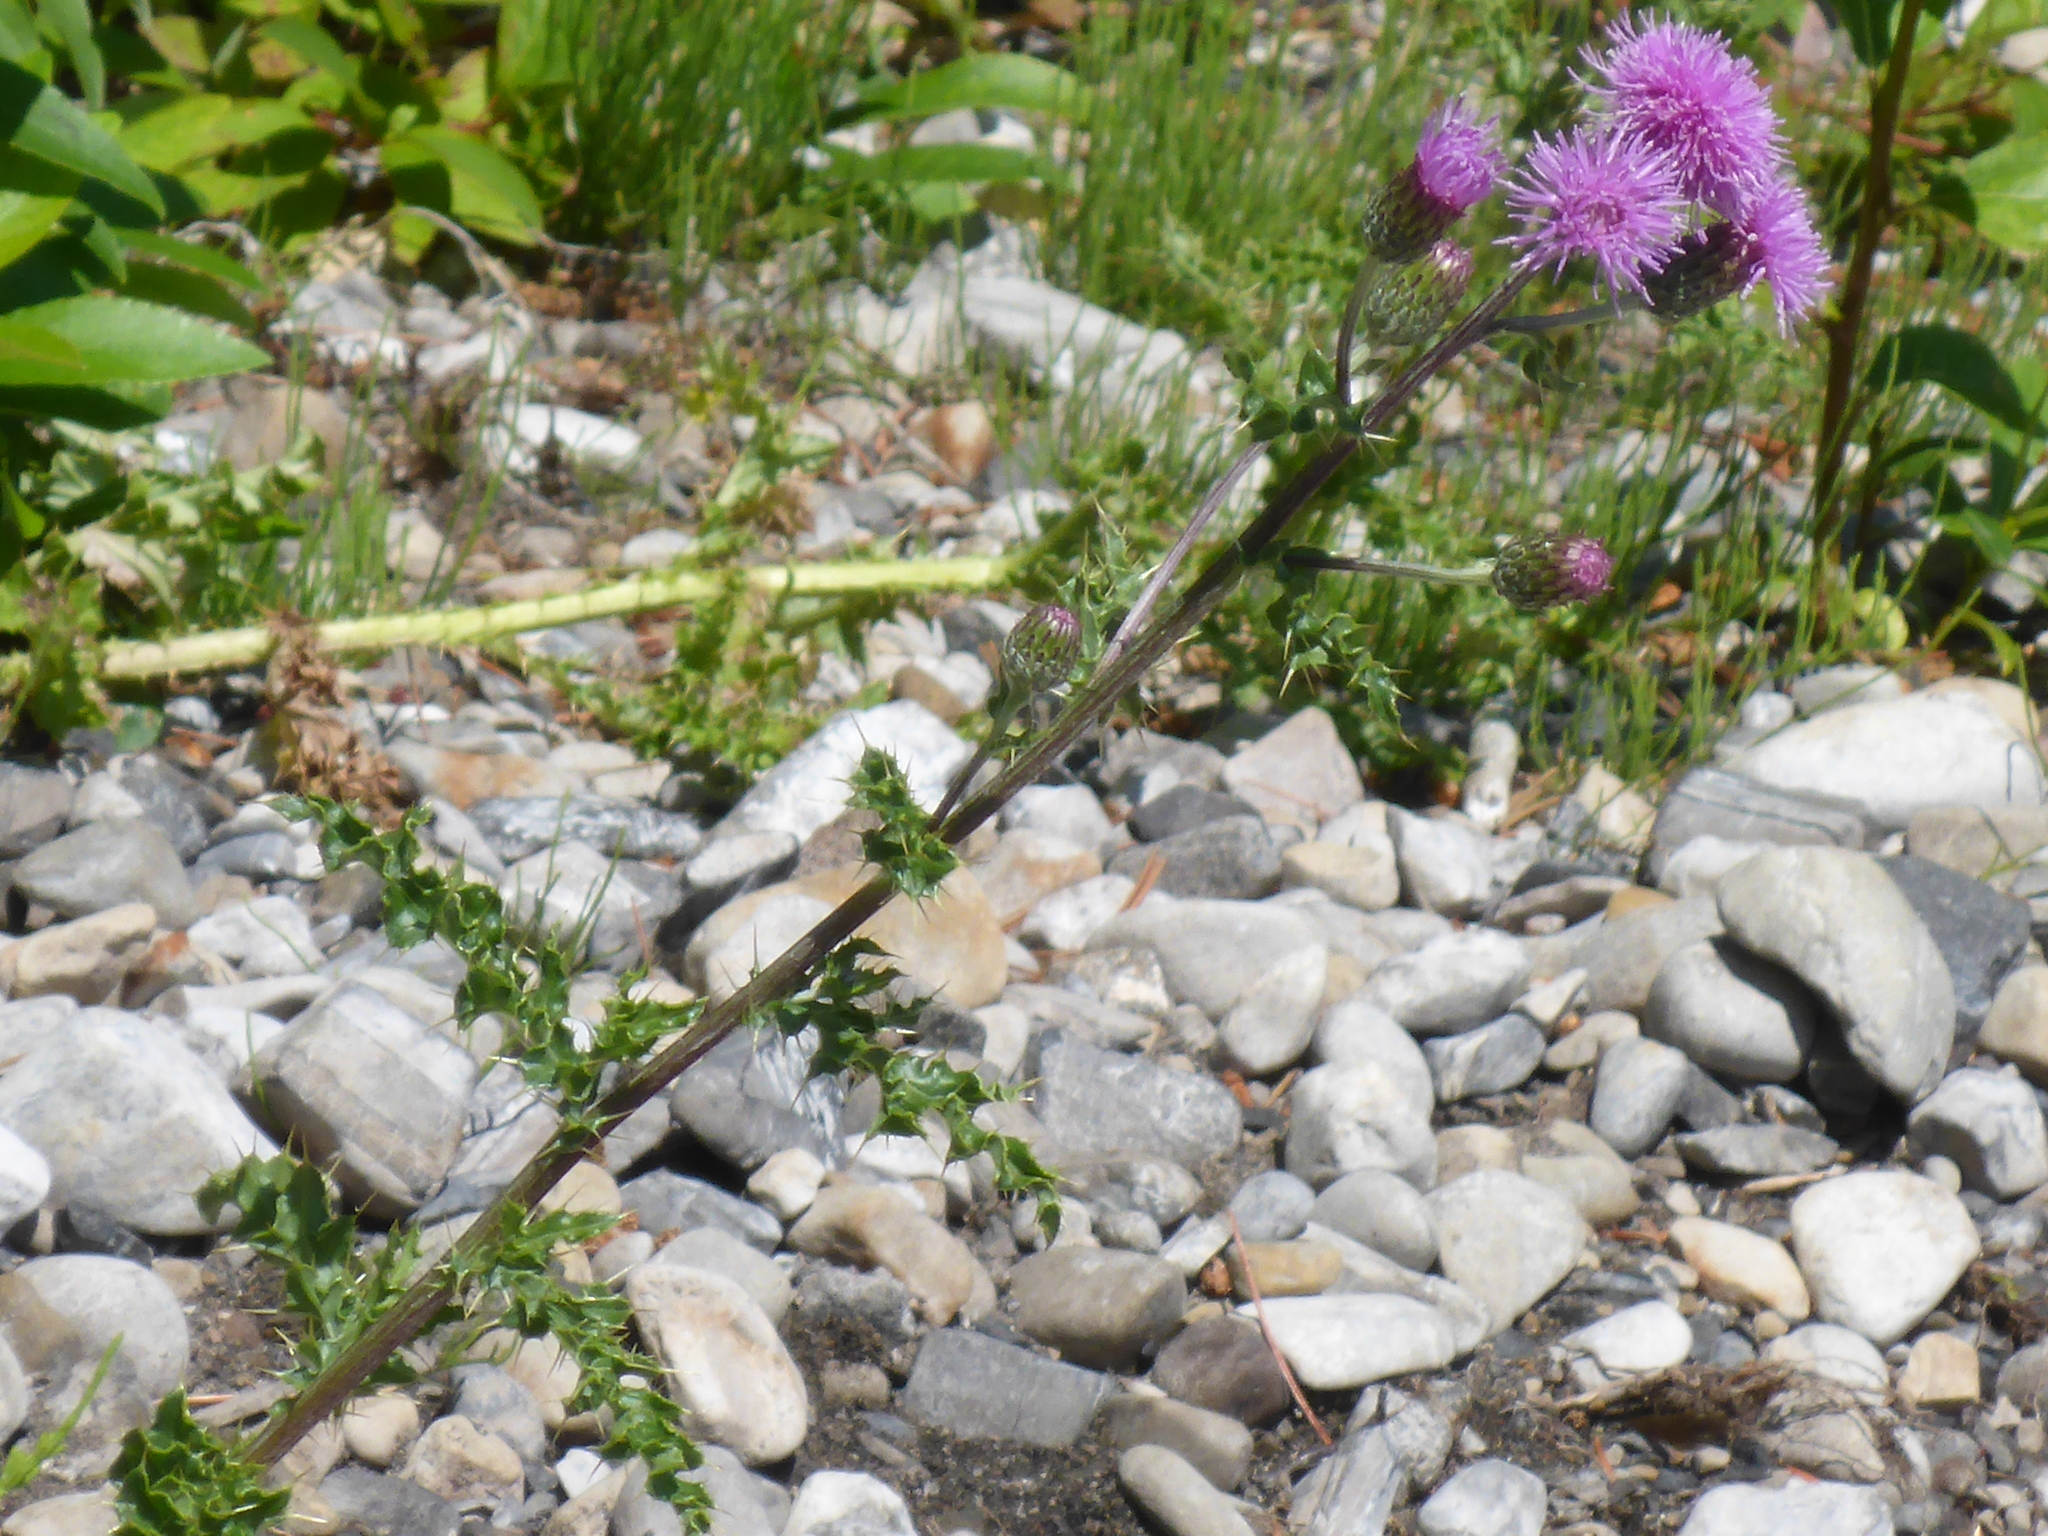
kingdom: Plantae
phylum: Tracheophyta
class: Magnoliopsida
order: Asterales
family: Asteraceae
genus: Cirsium
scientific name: Cirsium arvense
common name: Creeping thistle
